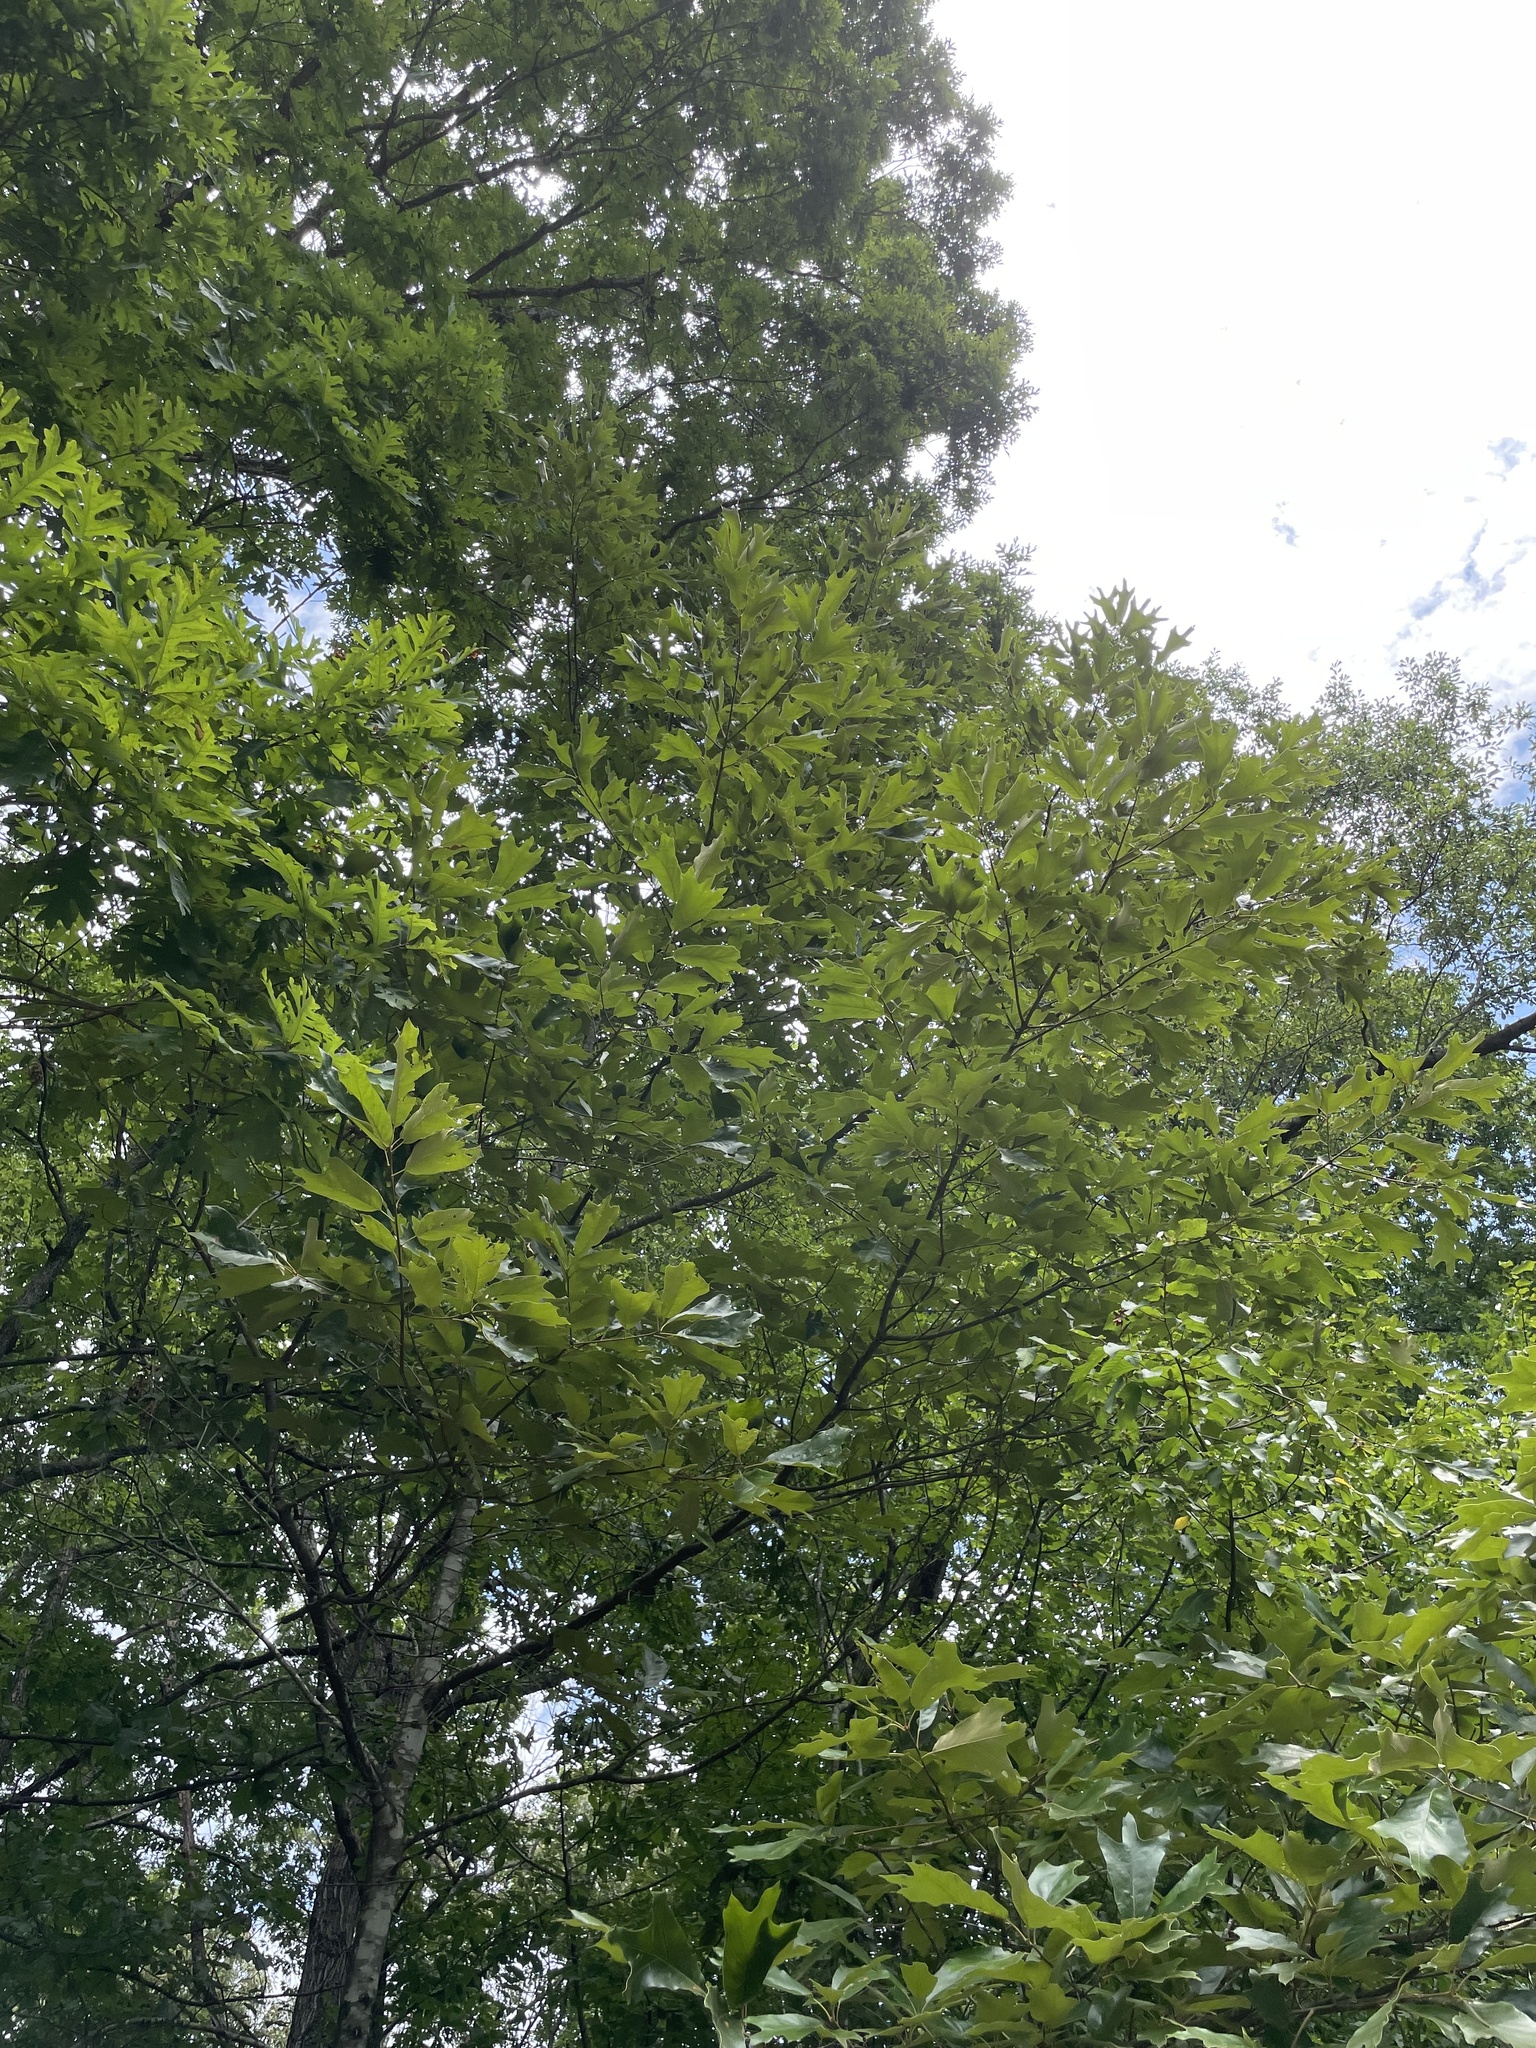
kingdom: Plantae
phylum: Tracheophyta
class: Magnoliopsida
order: Fagales
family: Fagaceae
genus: Quercus
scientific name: Quercus marilandica
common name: Blackjack oak
